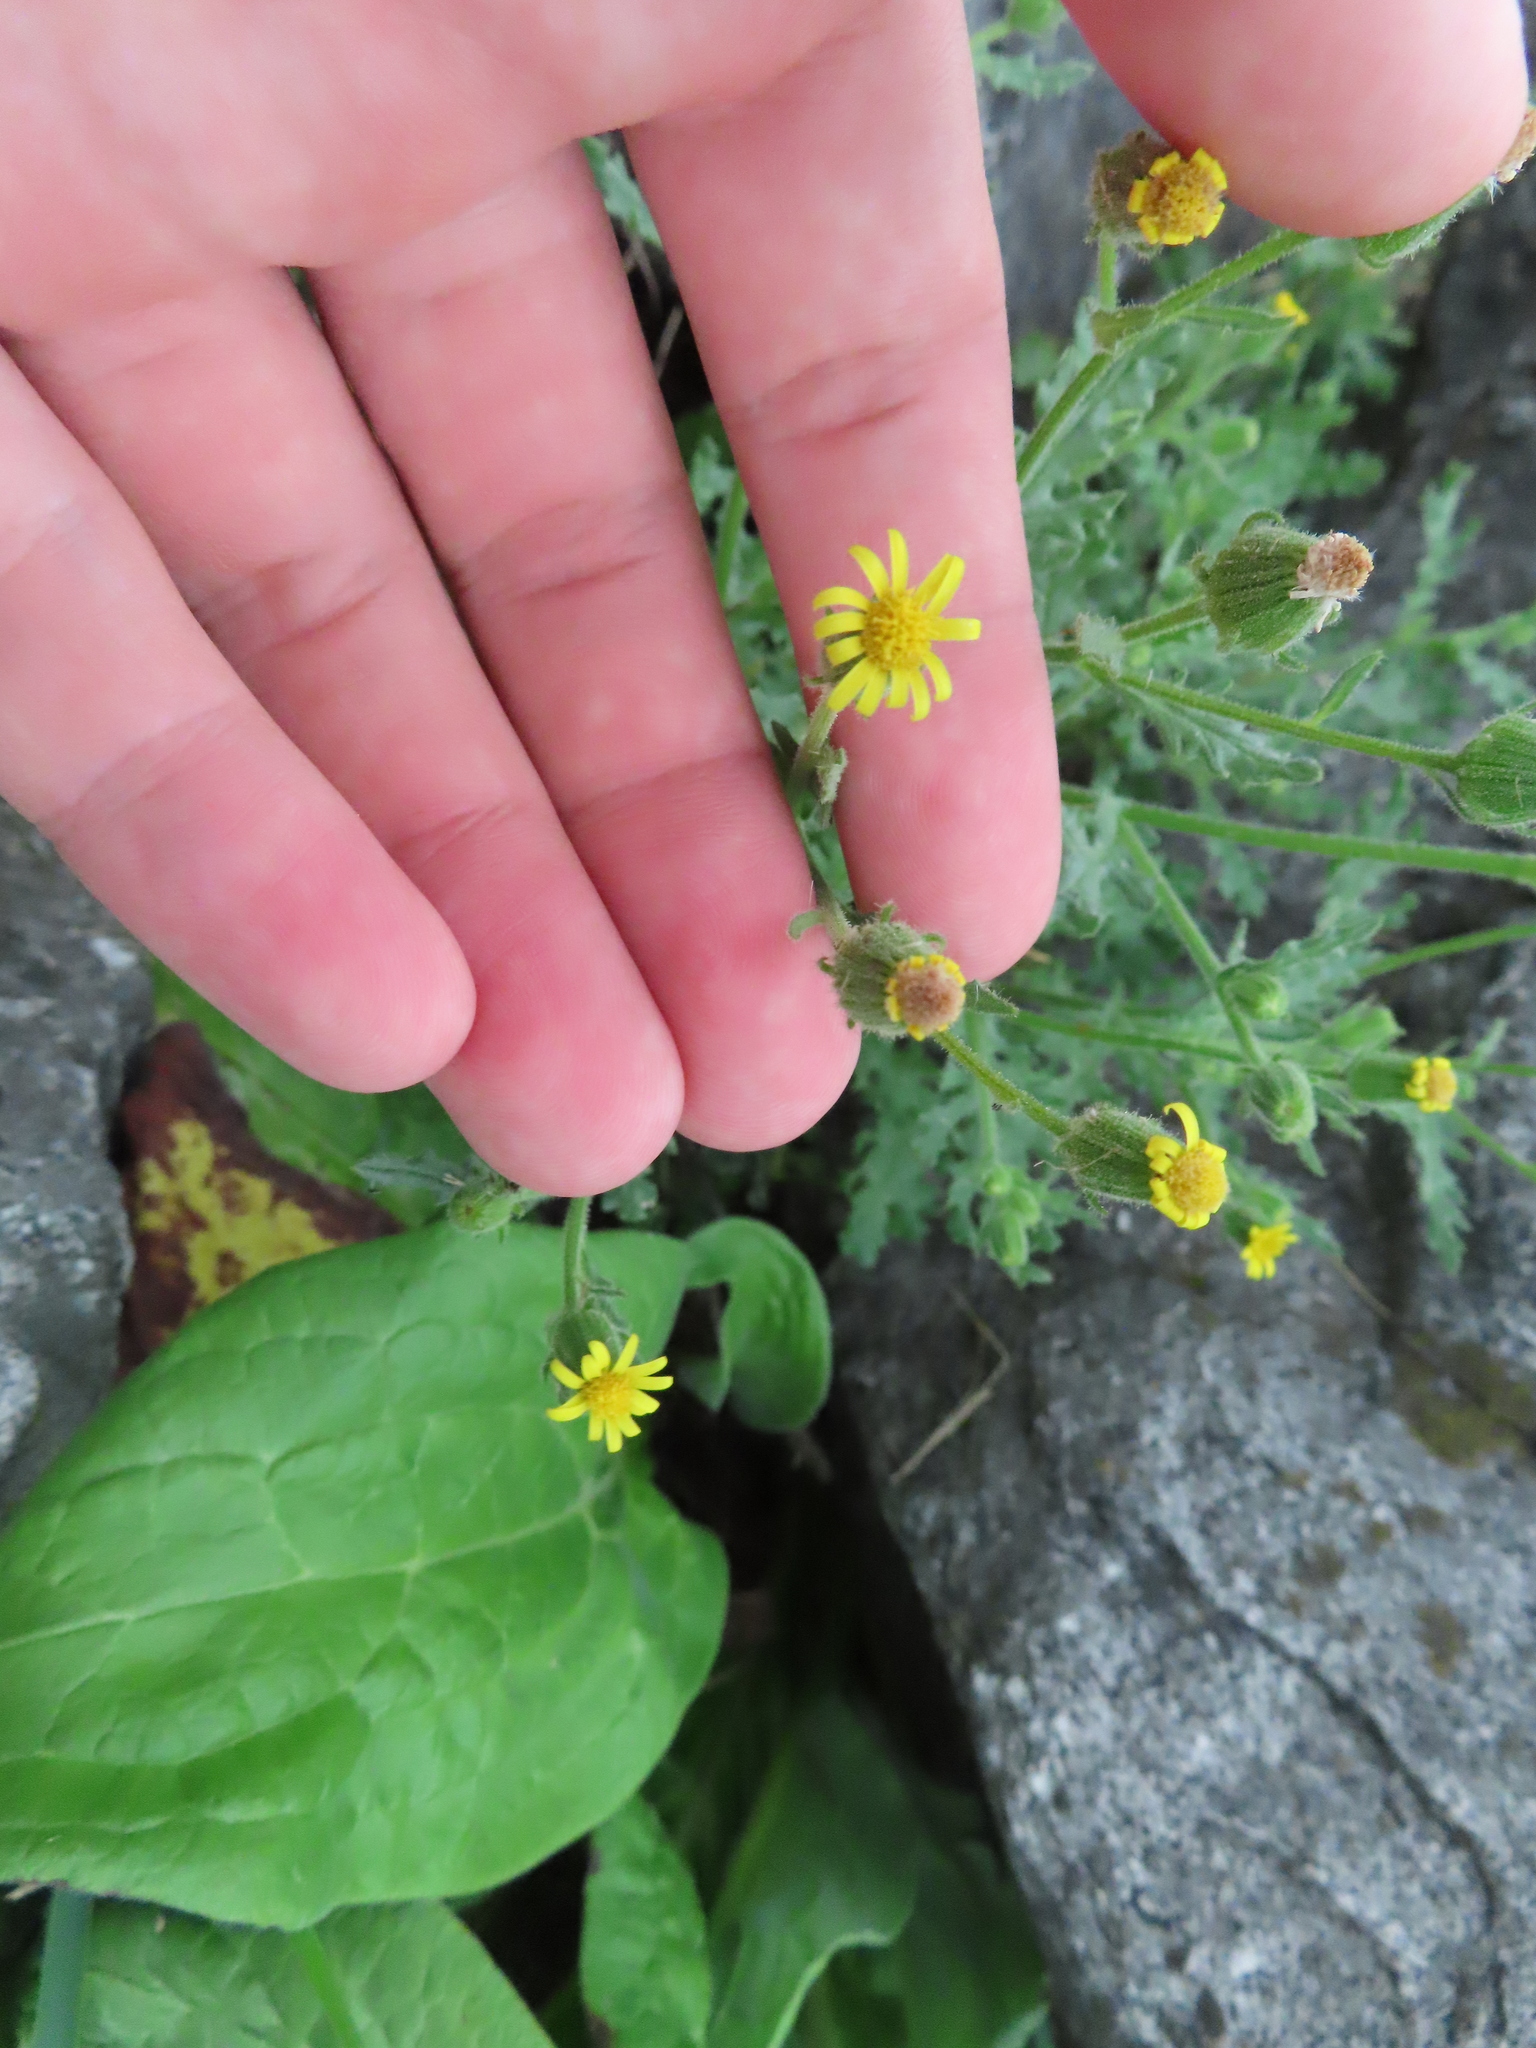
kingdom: Plantae
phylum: Tracheophyta
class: Magnoliopsida
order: Asterales
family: Asteraceae
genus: Senecio
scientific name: Senecio viscosus
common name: Sticky groundsel
